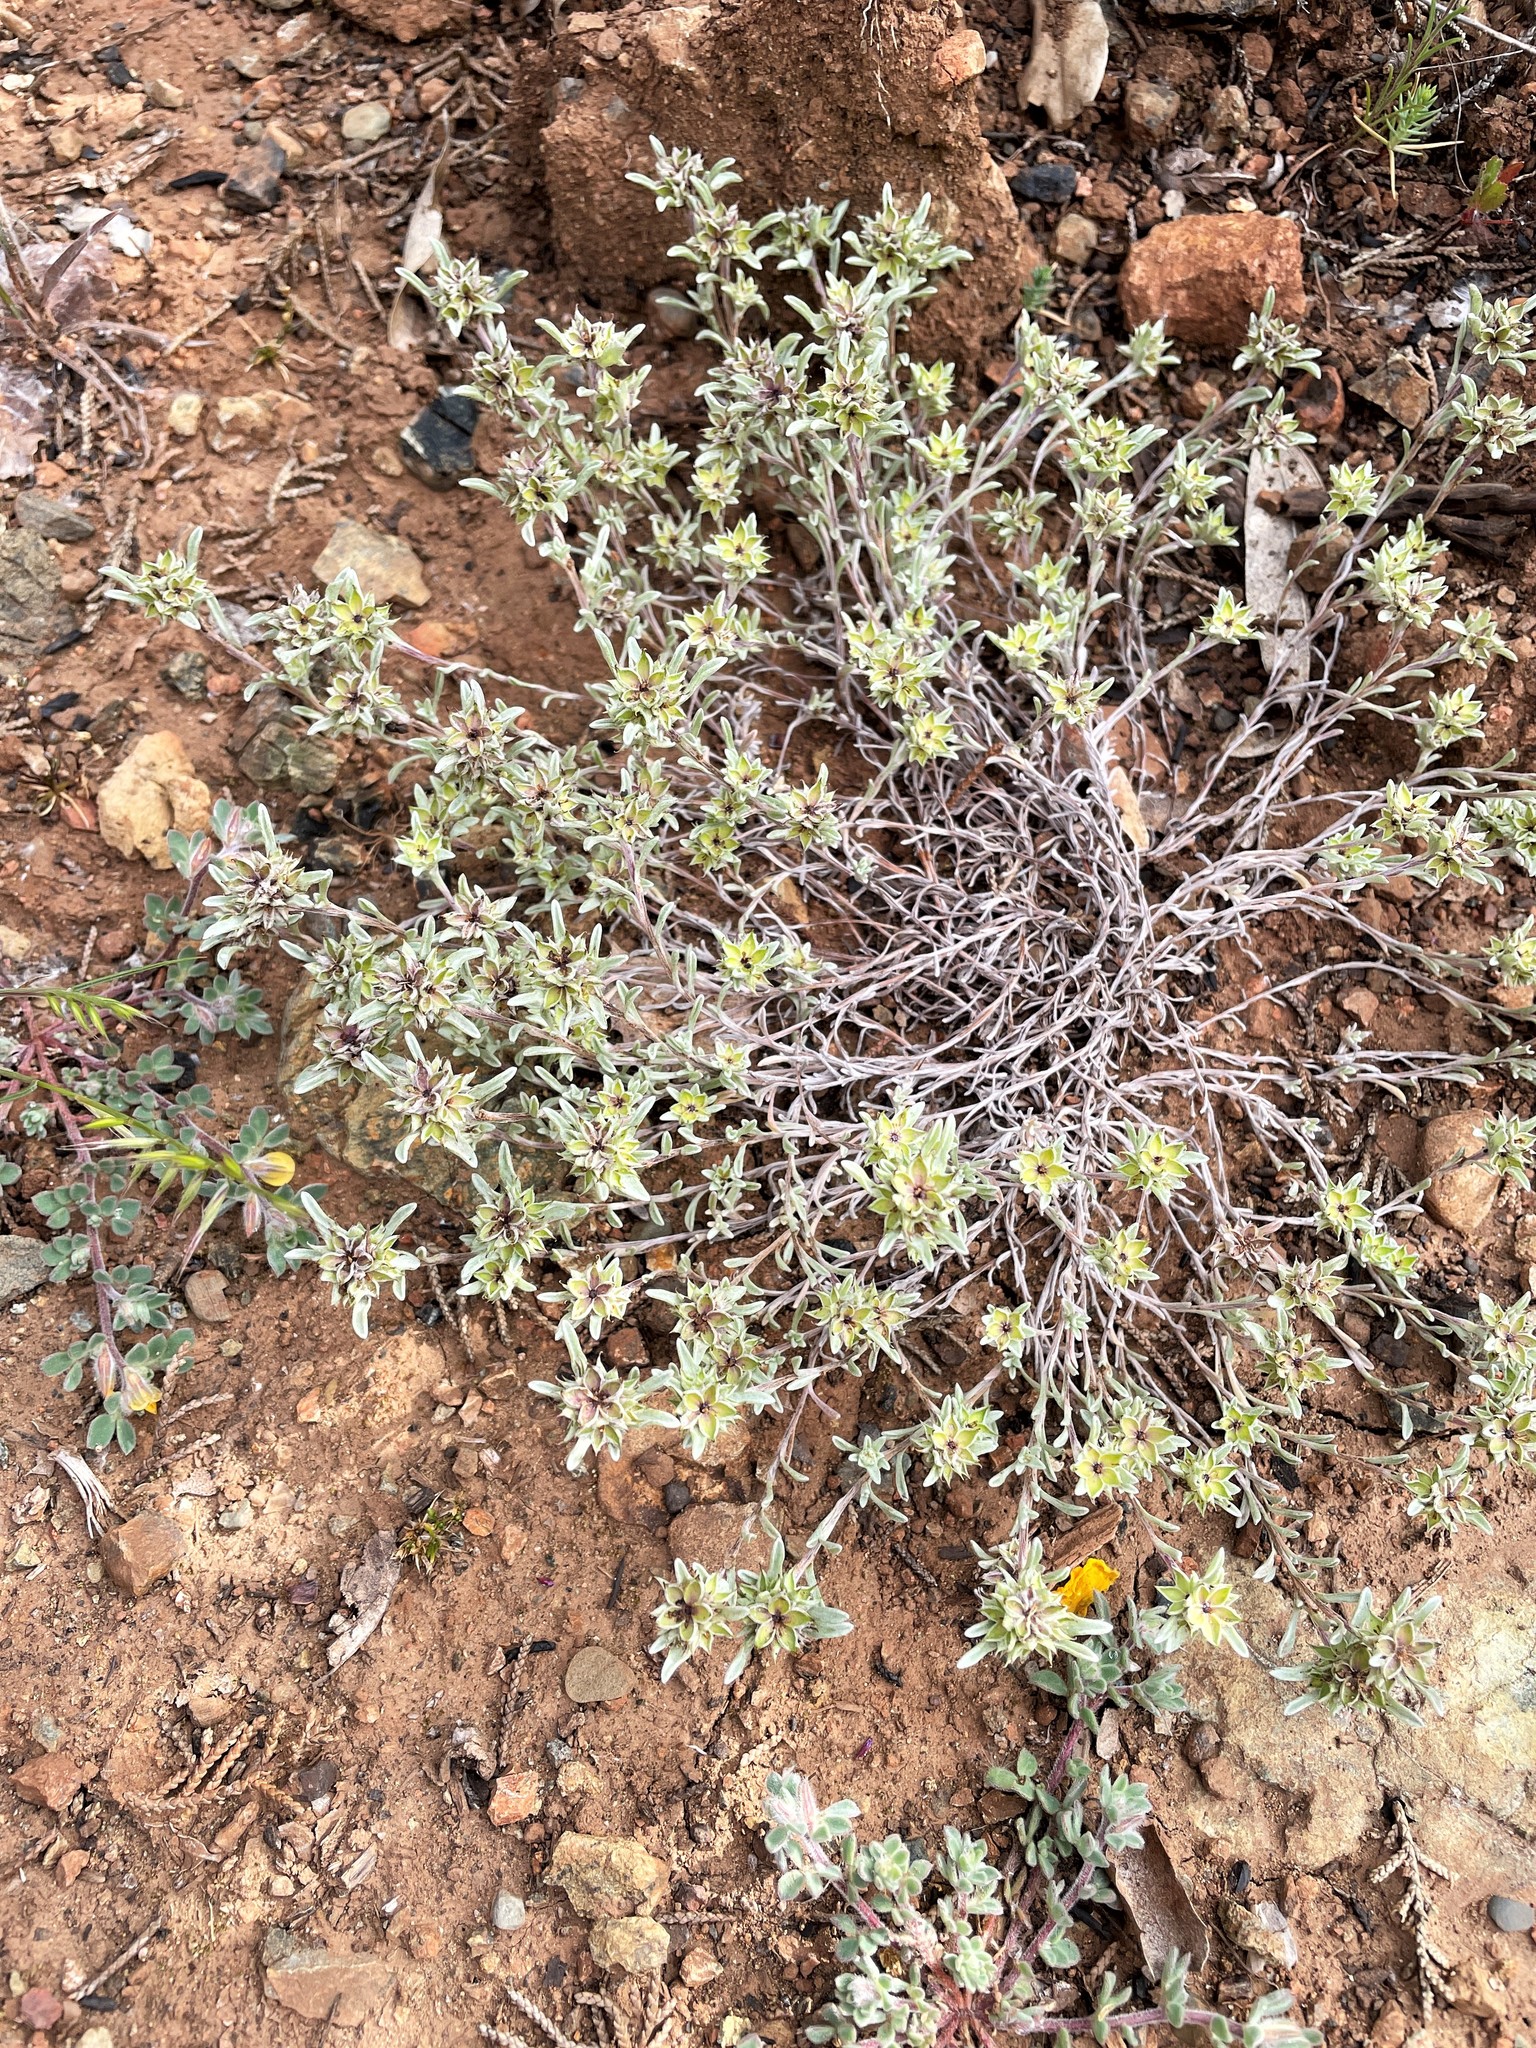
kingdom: Plantae
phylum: Tracheophyta
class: Magnoliopsida
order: Asterales
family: Asteraceae
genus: Ancistrocarphus
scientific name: Ancistrocarphus filagineus
